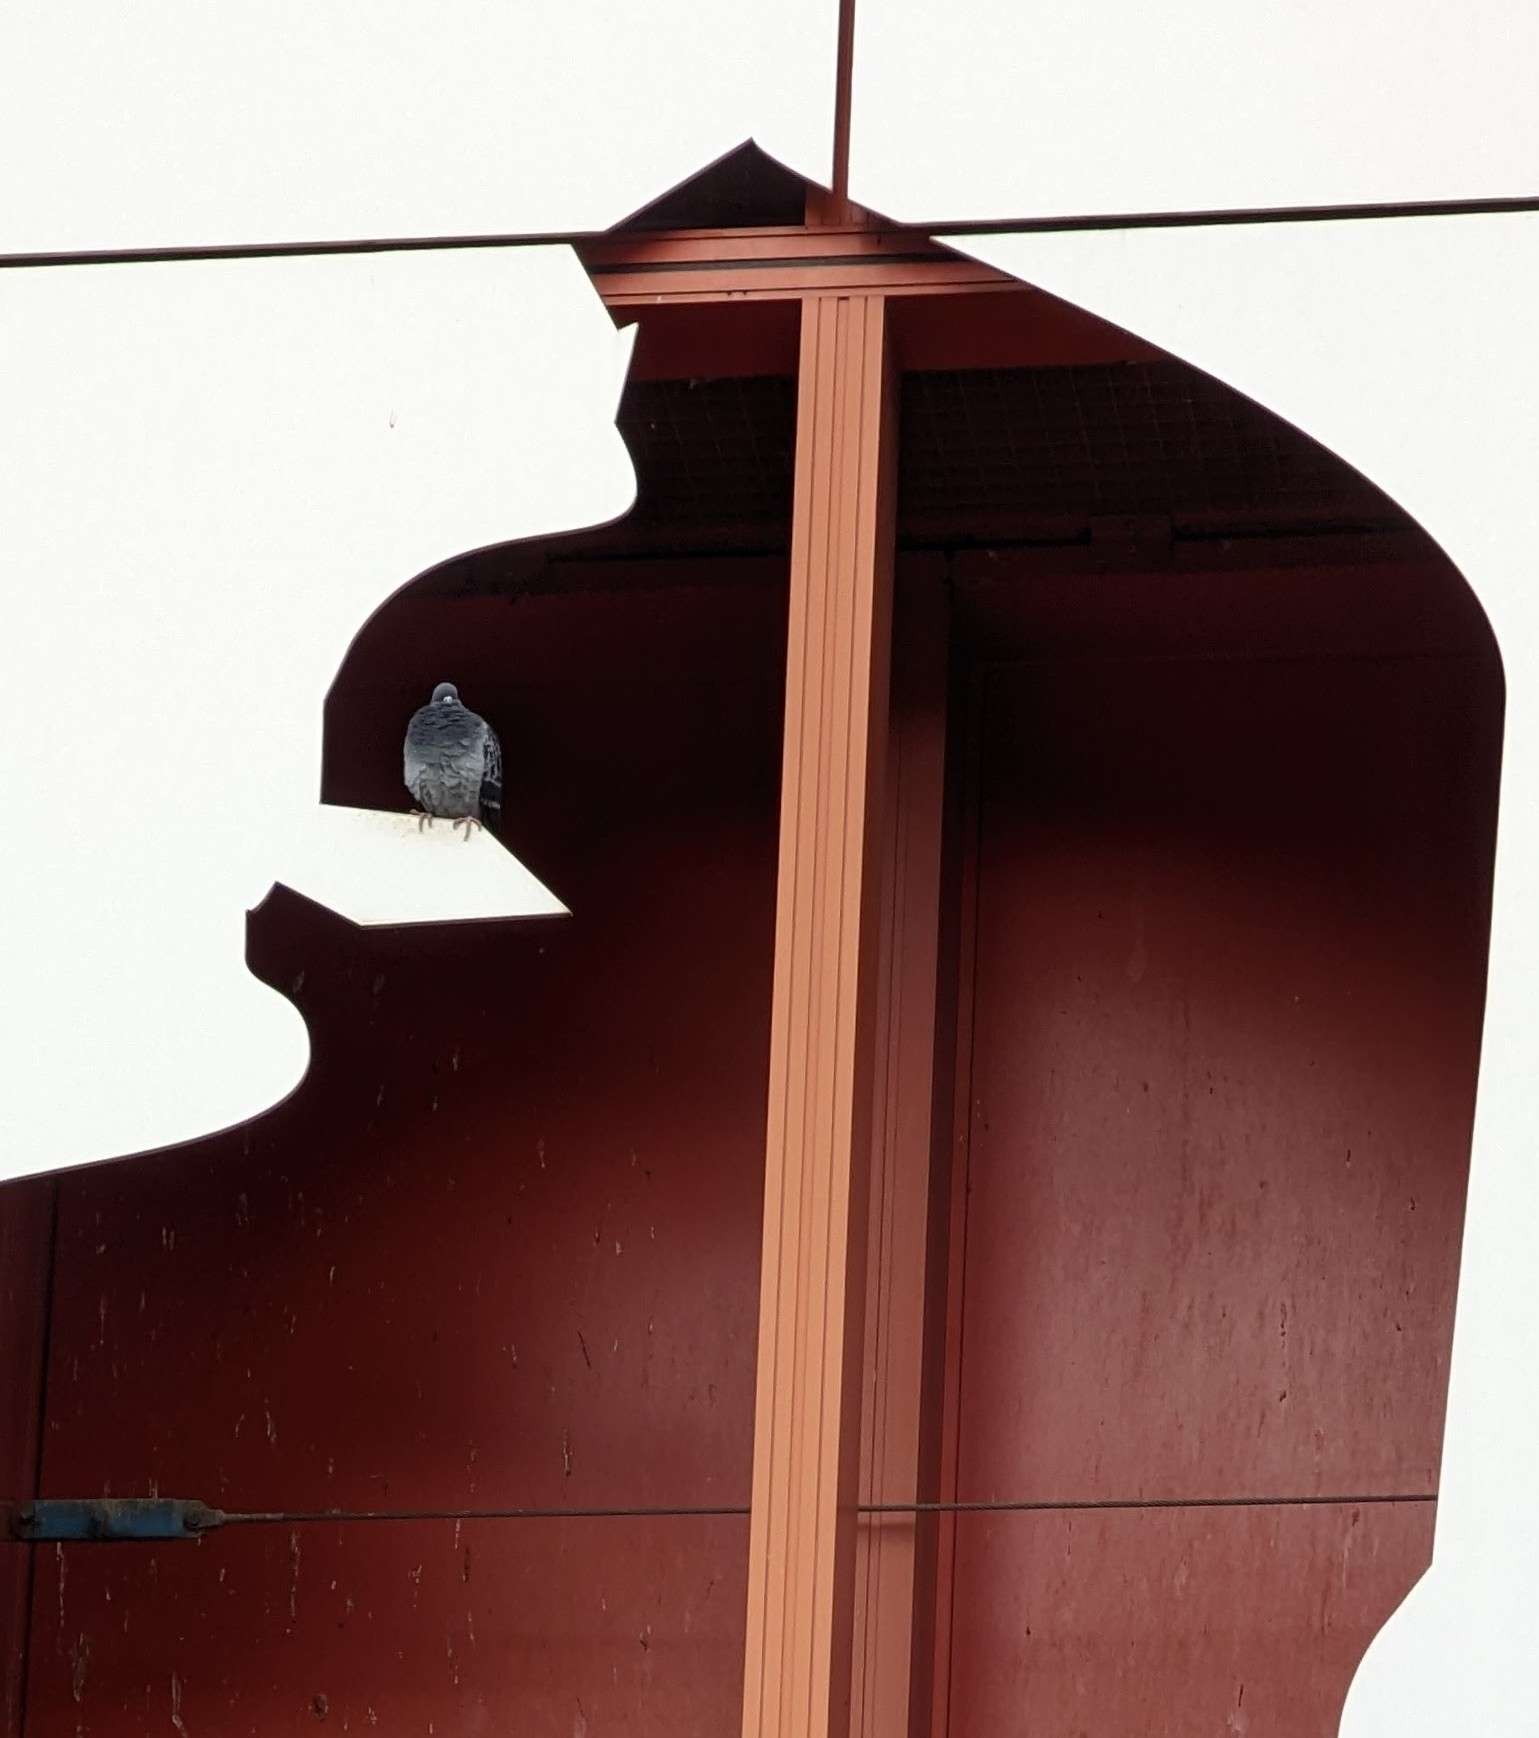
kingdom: Animalia
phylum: Chordata
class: Aves
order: Columbiformes
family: Columbidae
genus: Columba
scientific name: Columba livia
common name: Rock pigeon
